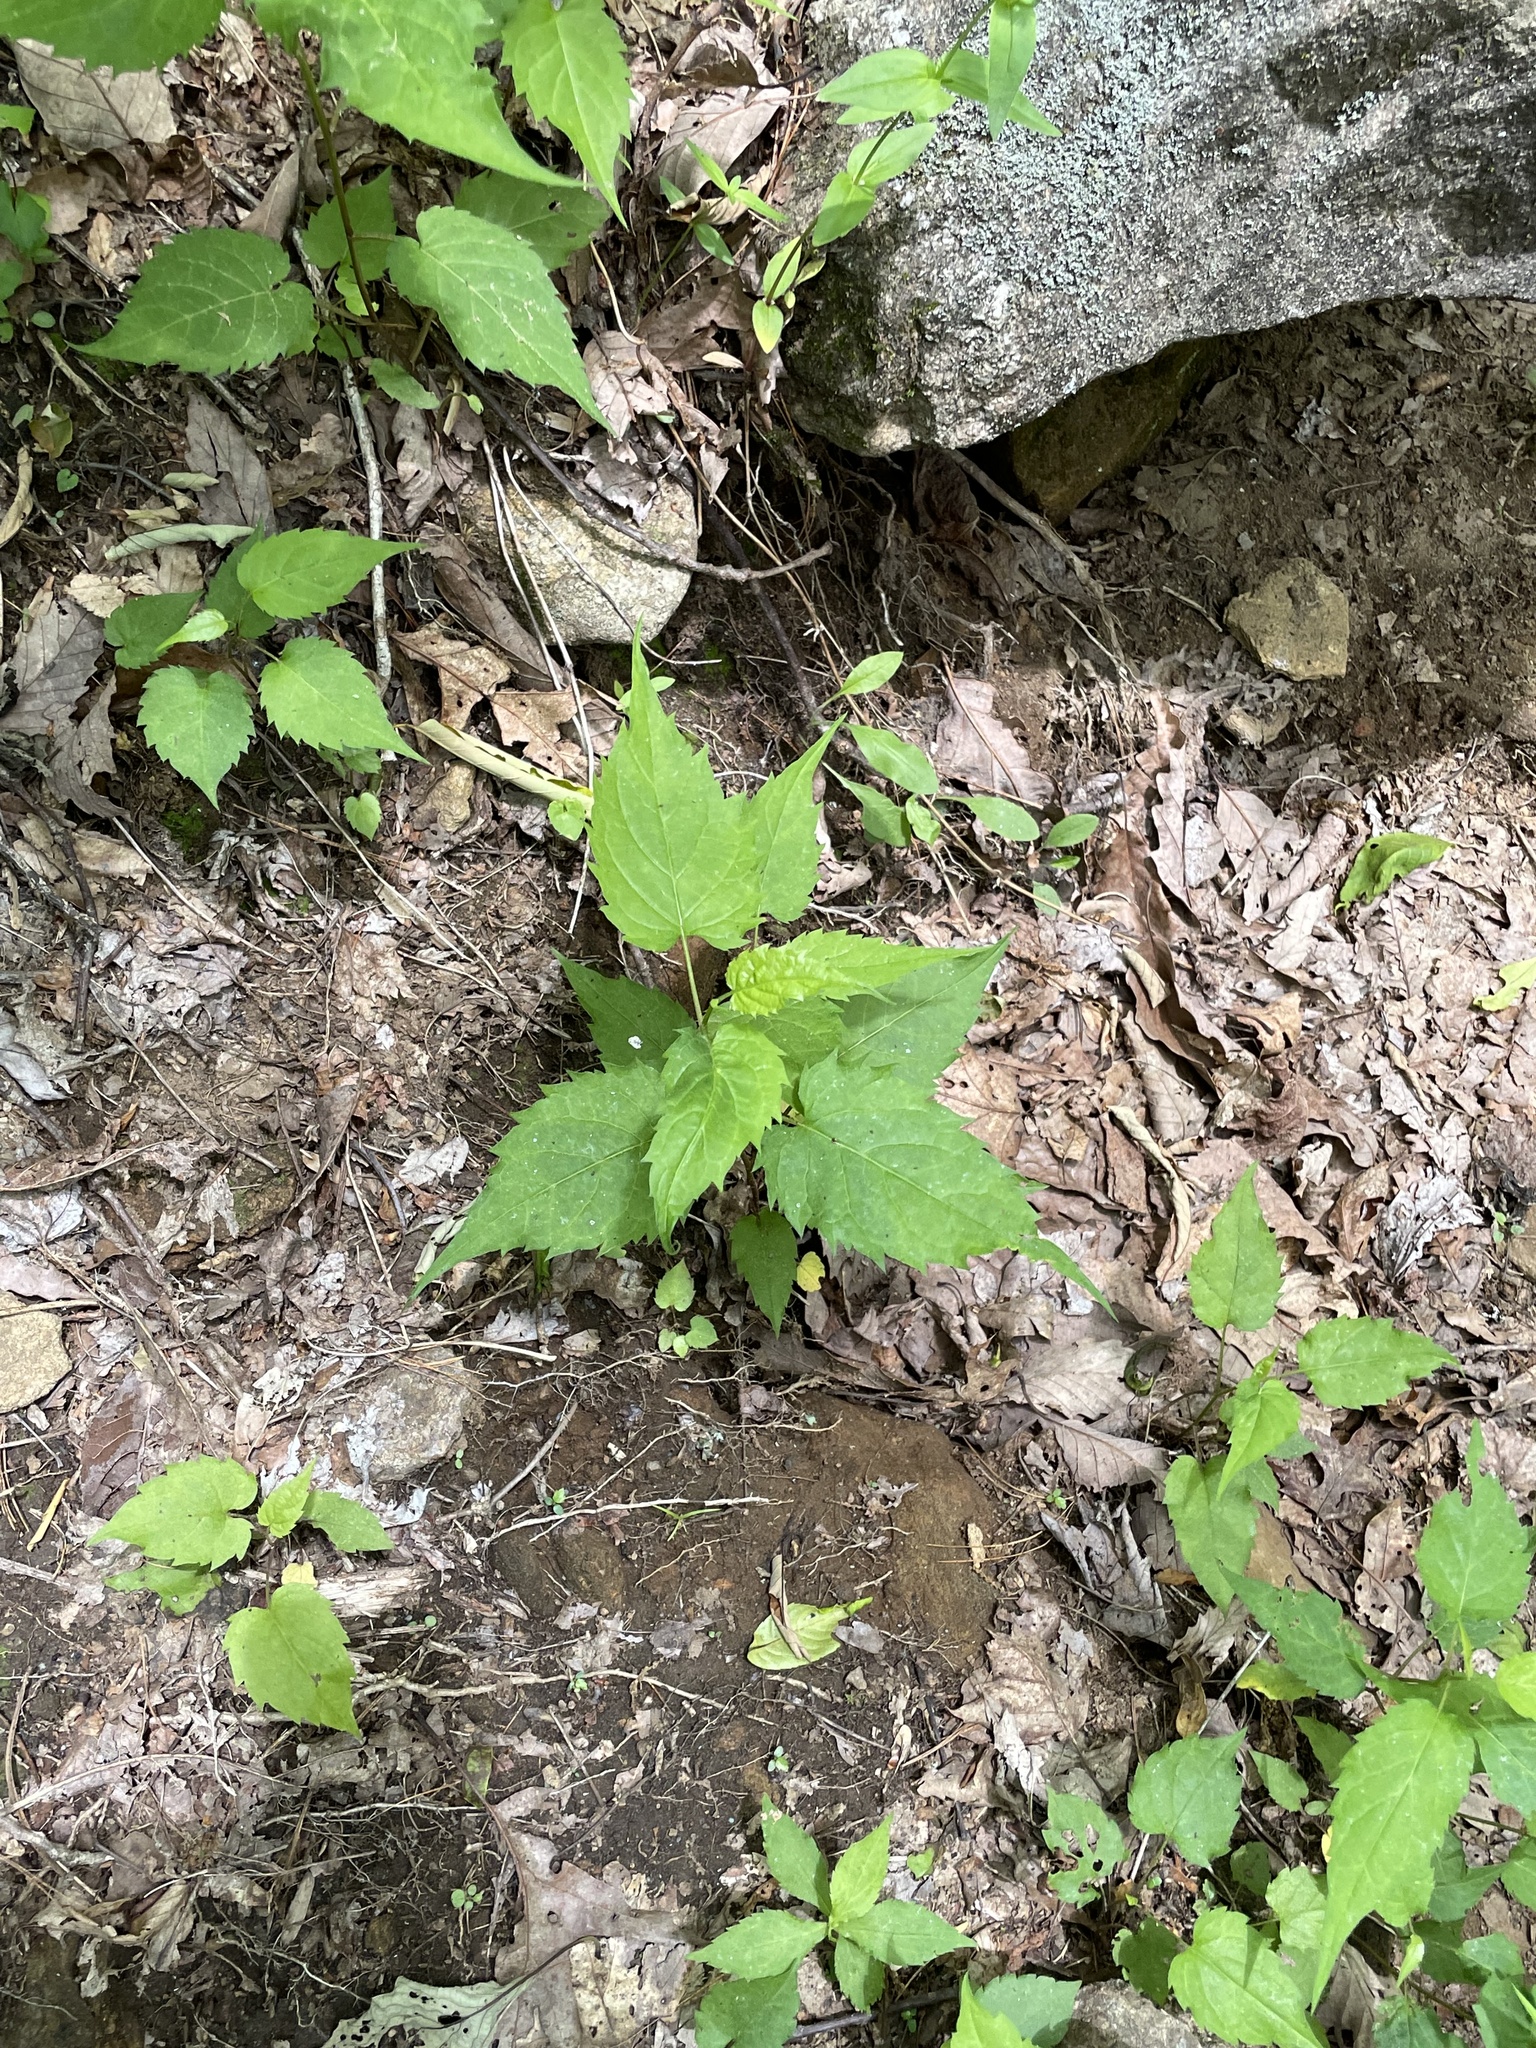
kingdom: Plantae
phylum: Tracheophyta
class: Magnoliopsida
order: Asterales
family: Asteraceae
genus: Eurybia
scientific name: Eurybia divaricata
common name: White wood aster
